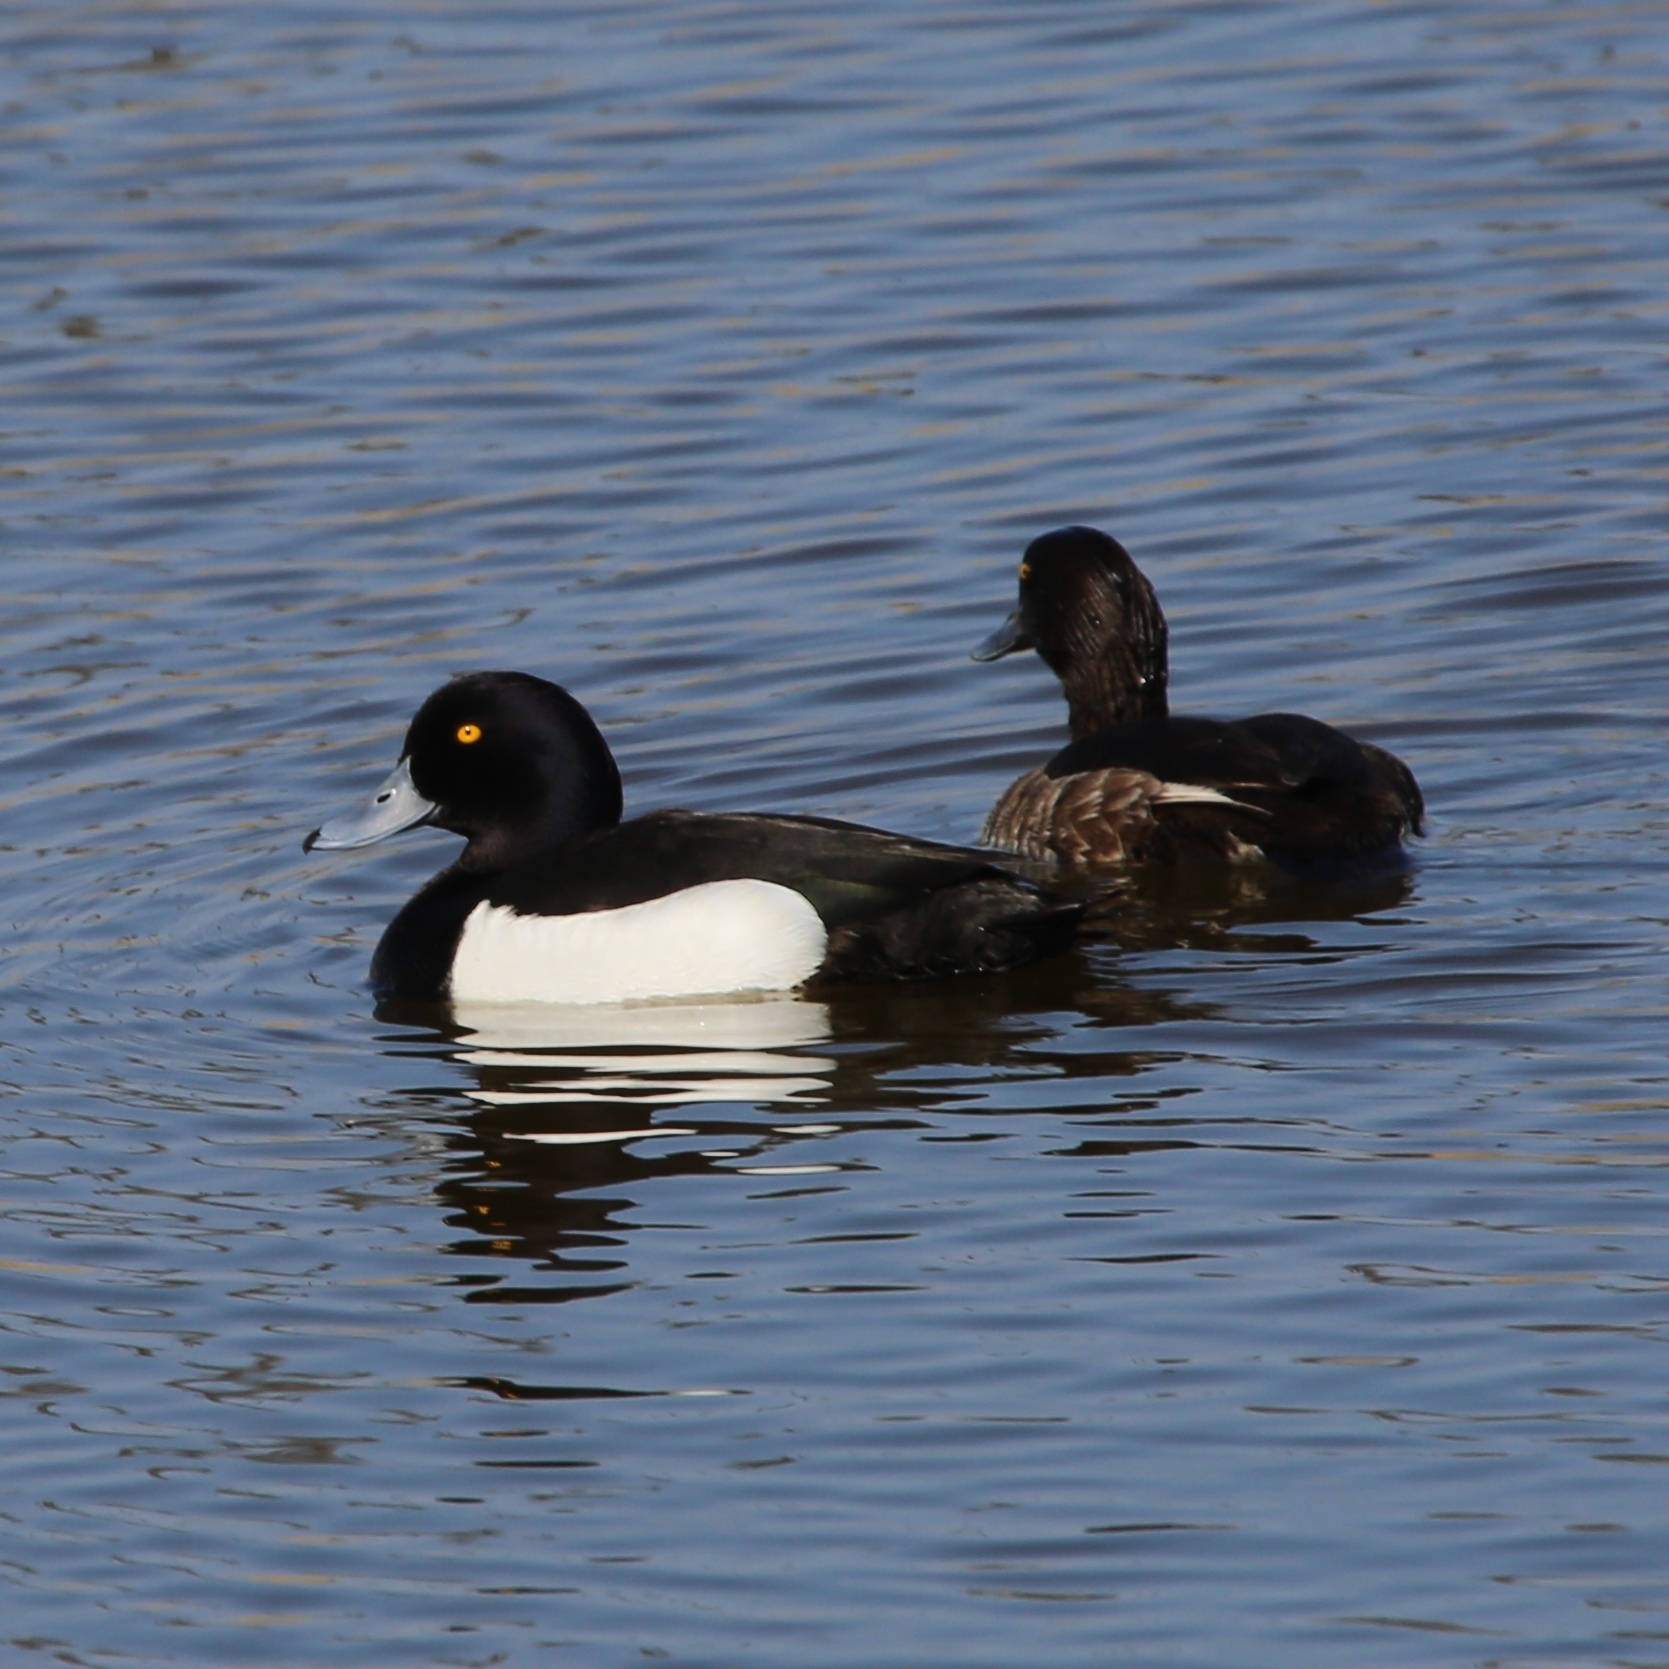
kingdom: Animalia
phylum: Chordata
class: Aves
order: Anseriformes
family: Anatidae
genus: Aythya
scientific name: Aythya fuligula
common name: Tufted duck
